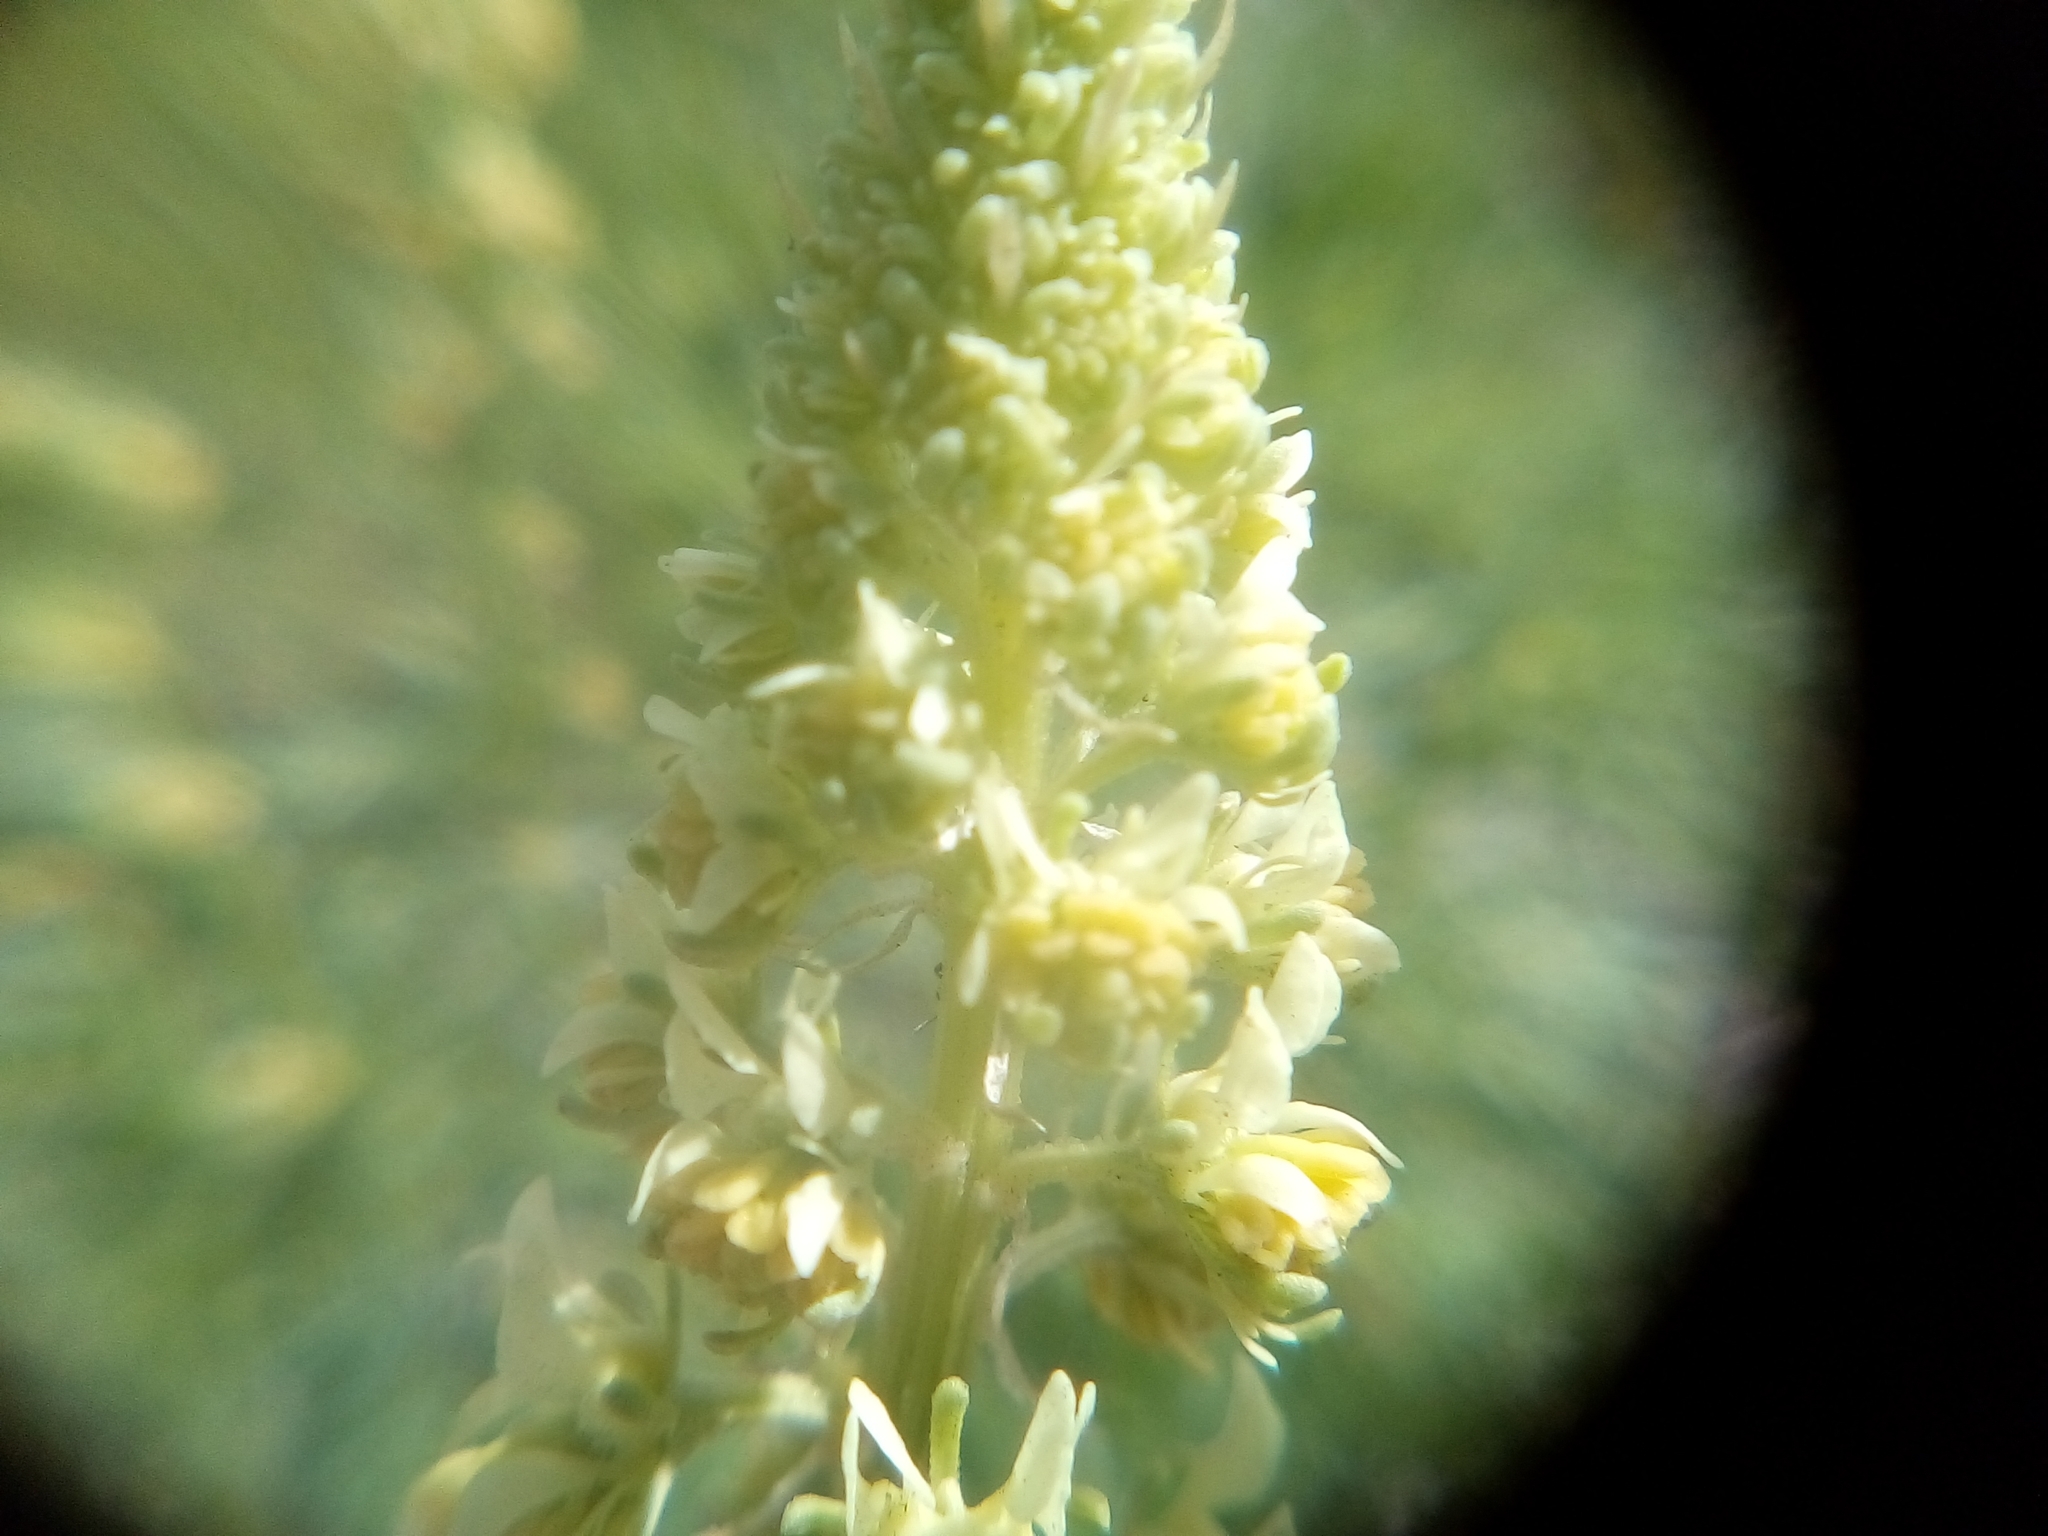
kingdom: Plantae
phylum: Tracheophyta
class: Magnoliopsida
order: Brassicales
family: Resedaceae
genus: Reseda
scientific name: Reseda lutea
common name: Wild mignonette
